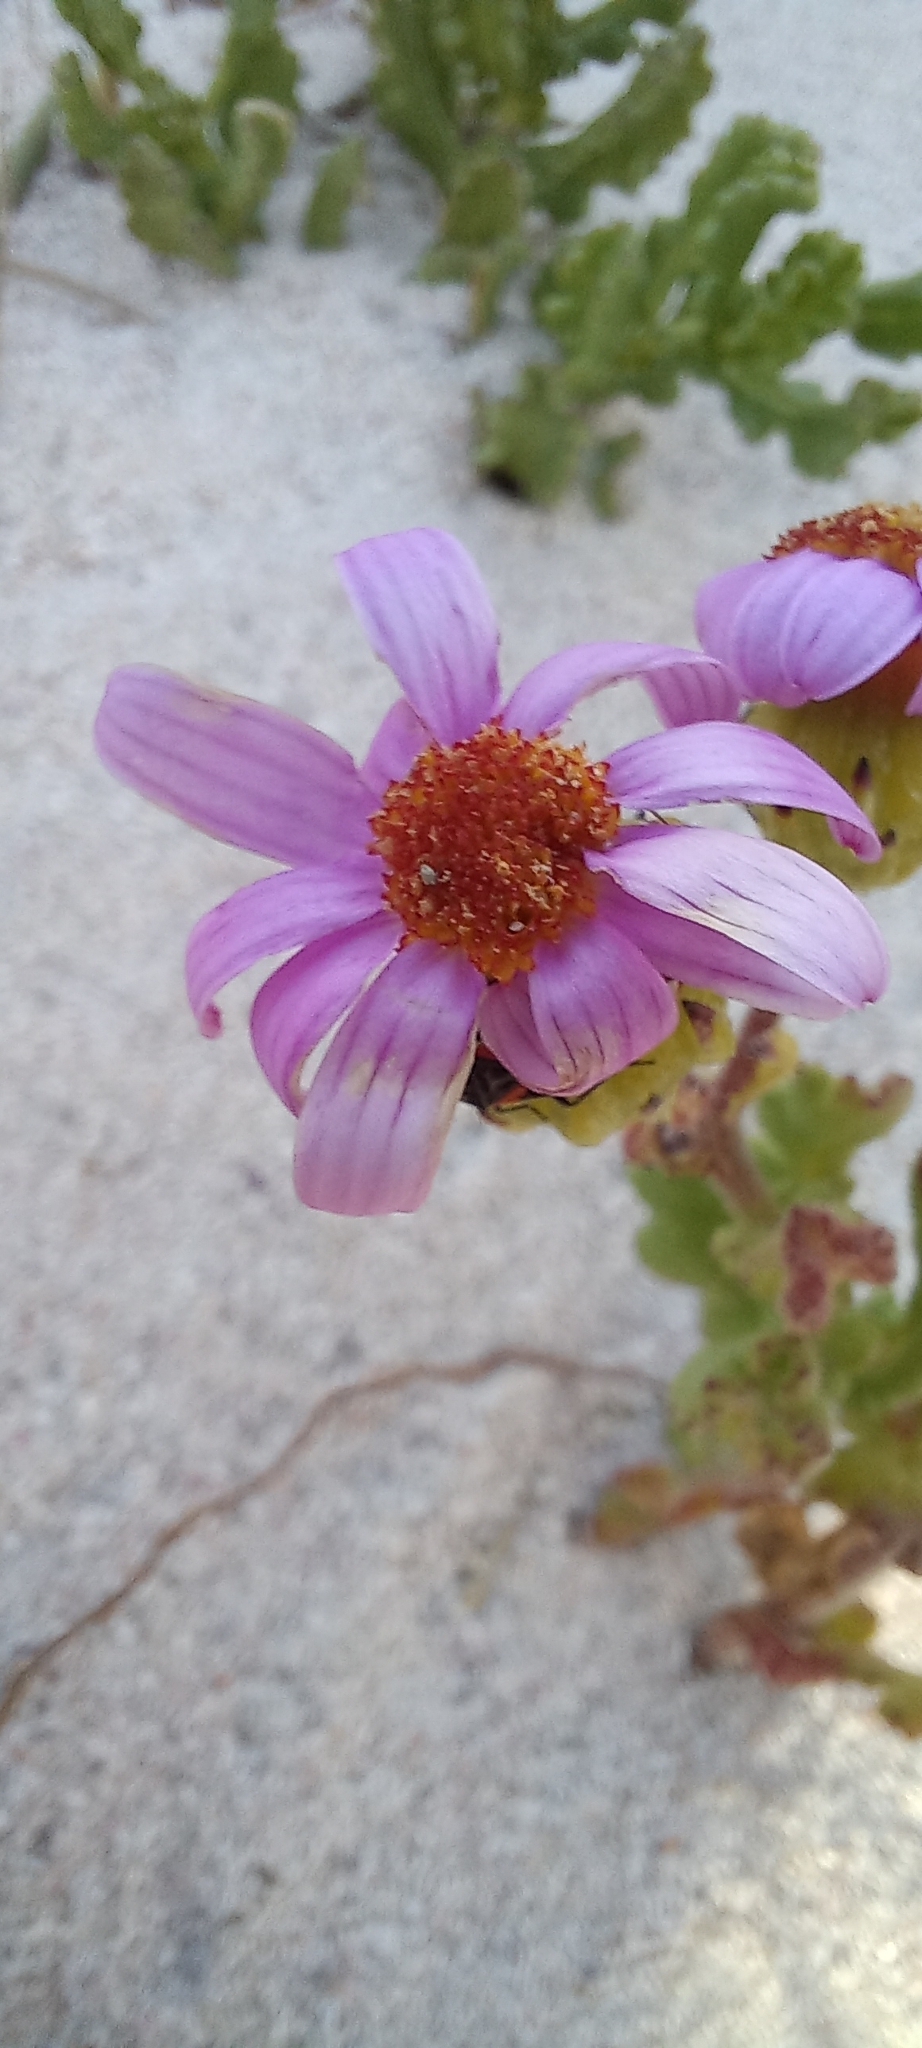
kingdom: Animalia
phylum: Arthropoda
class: Insecta
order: Hemiptera
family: Lygaeidae
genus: Melanostethus
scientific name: Melanostethus marginatus
